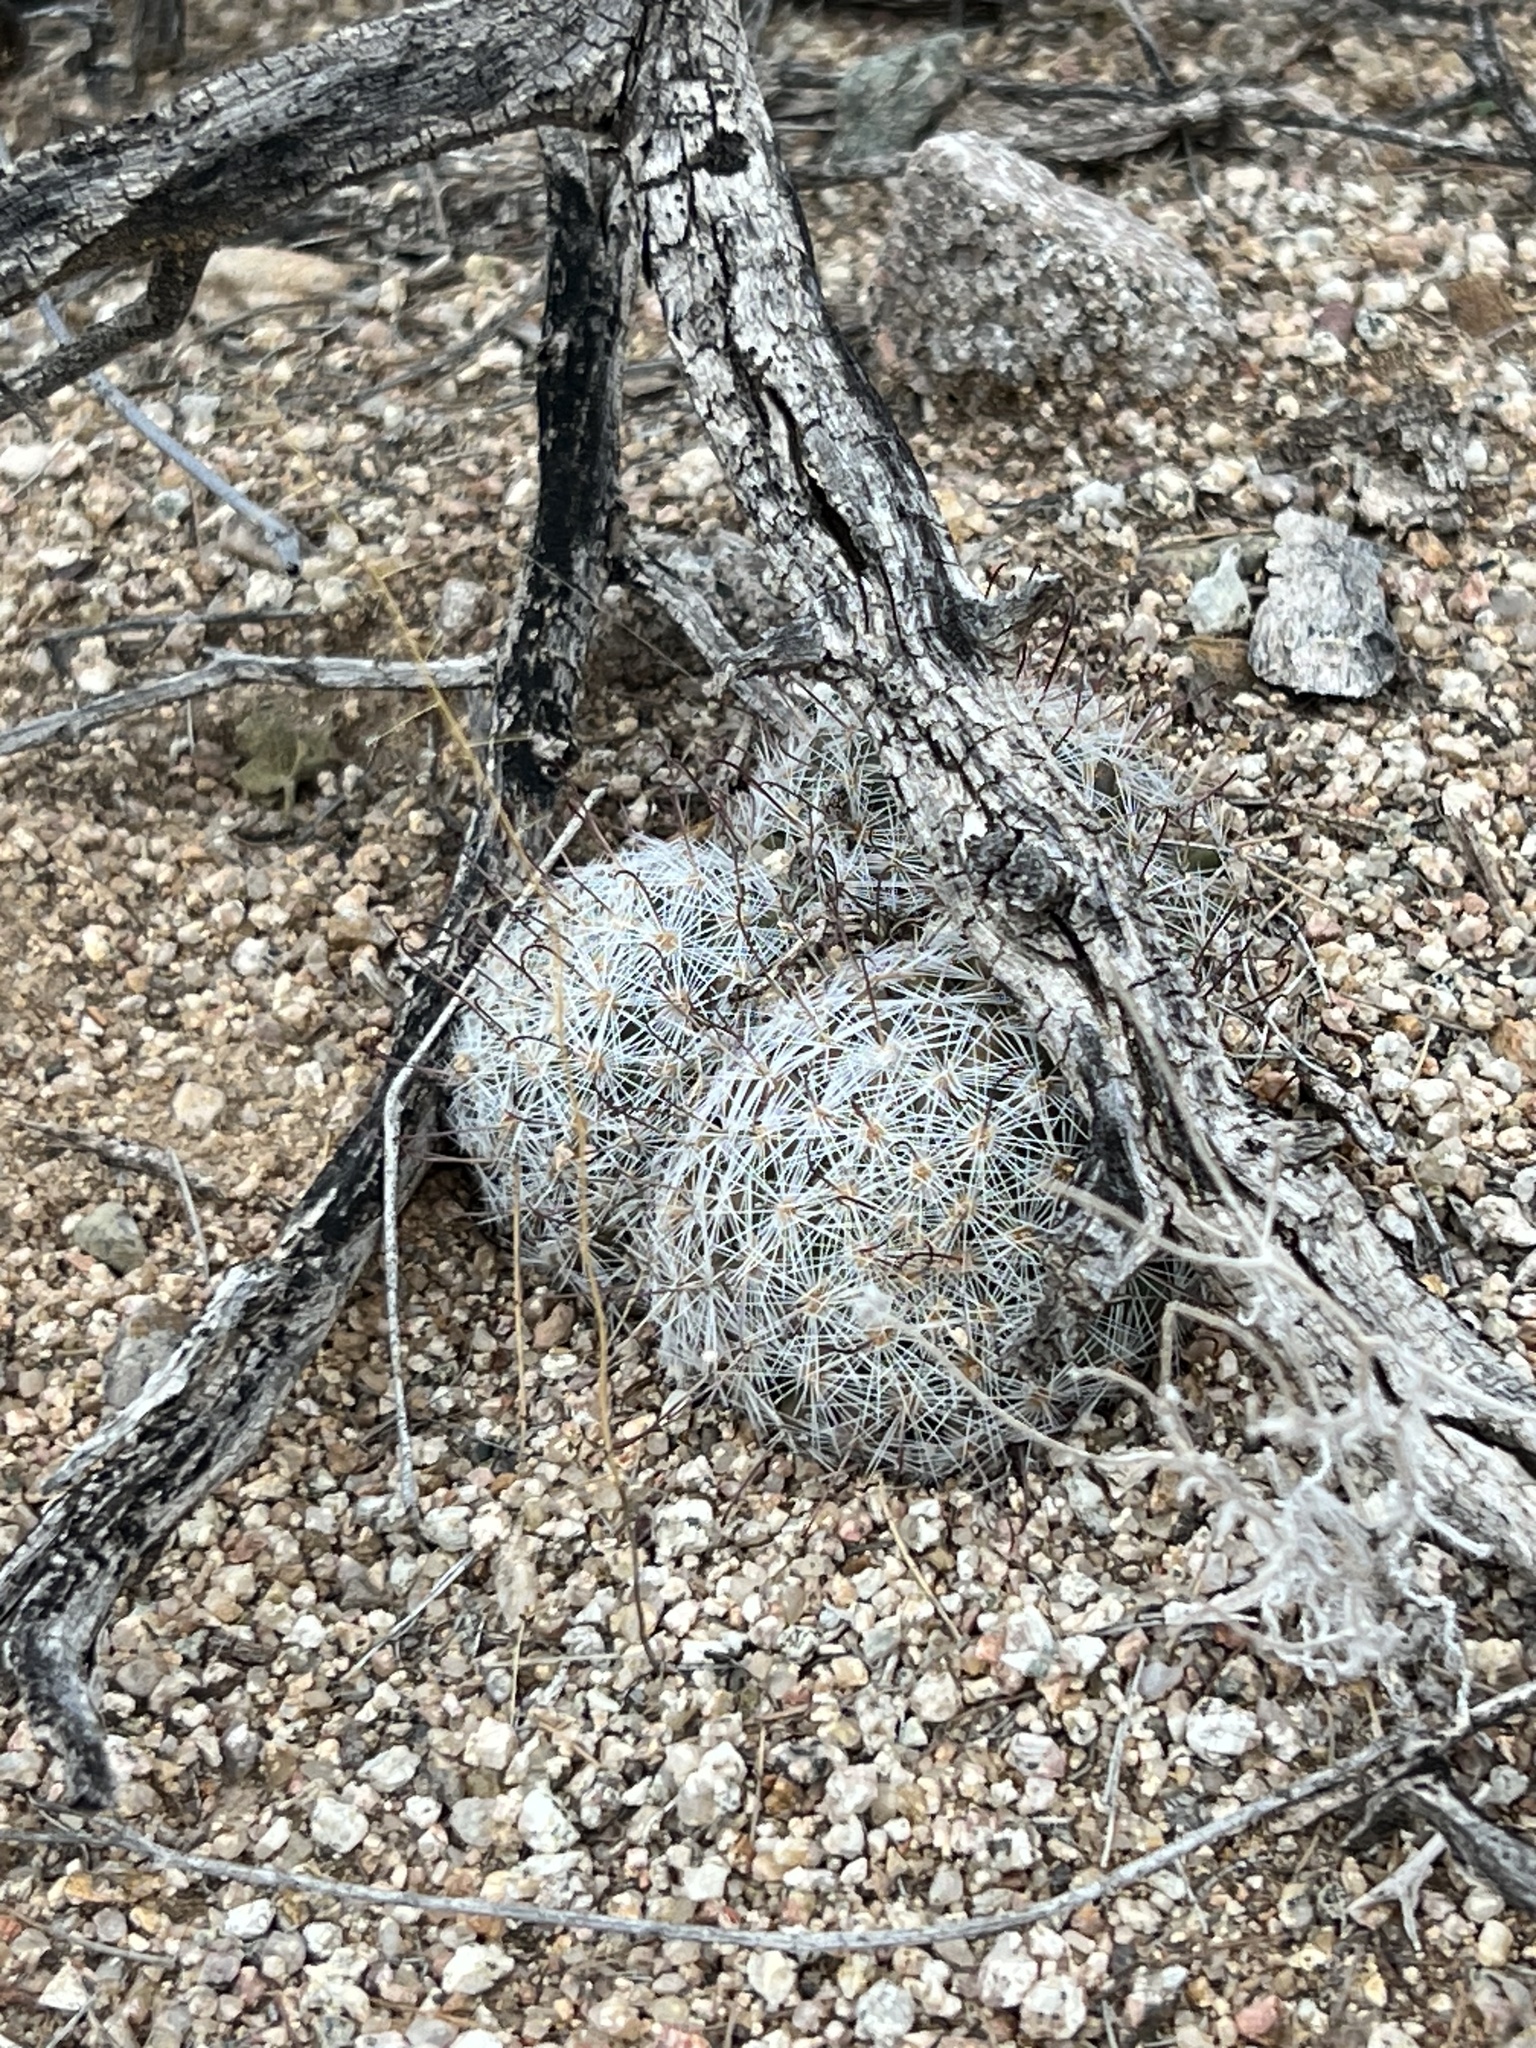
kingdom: Plantae
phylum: Tracheophyta
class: Magnoliopsida
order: Caryophyllales
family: Cactaceae
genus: Cochemiea
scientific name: Cochemiea grahamii
